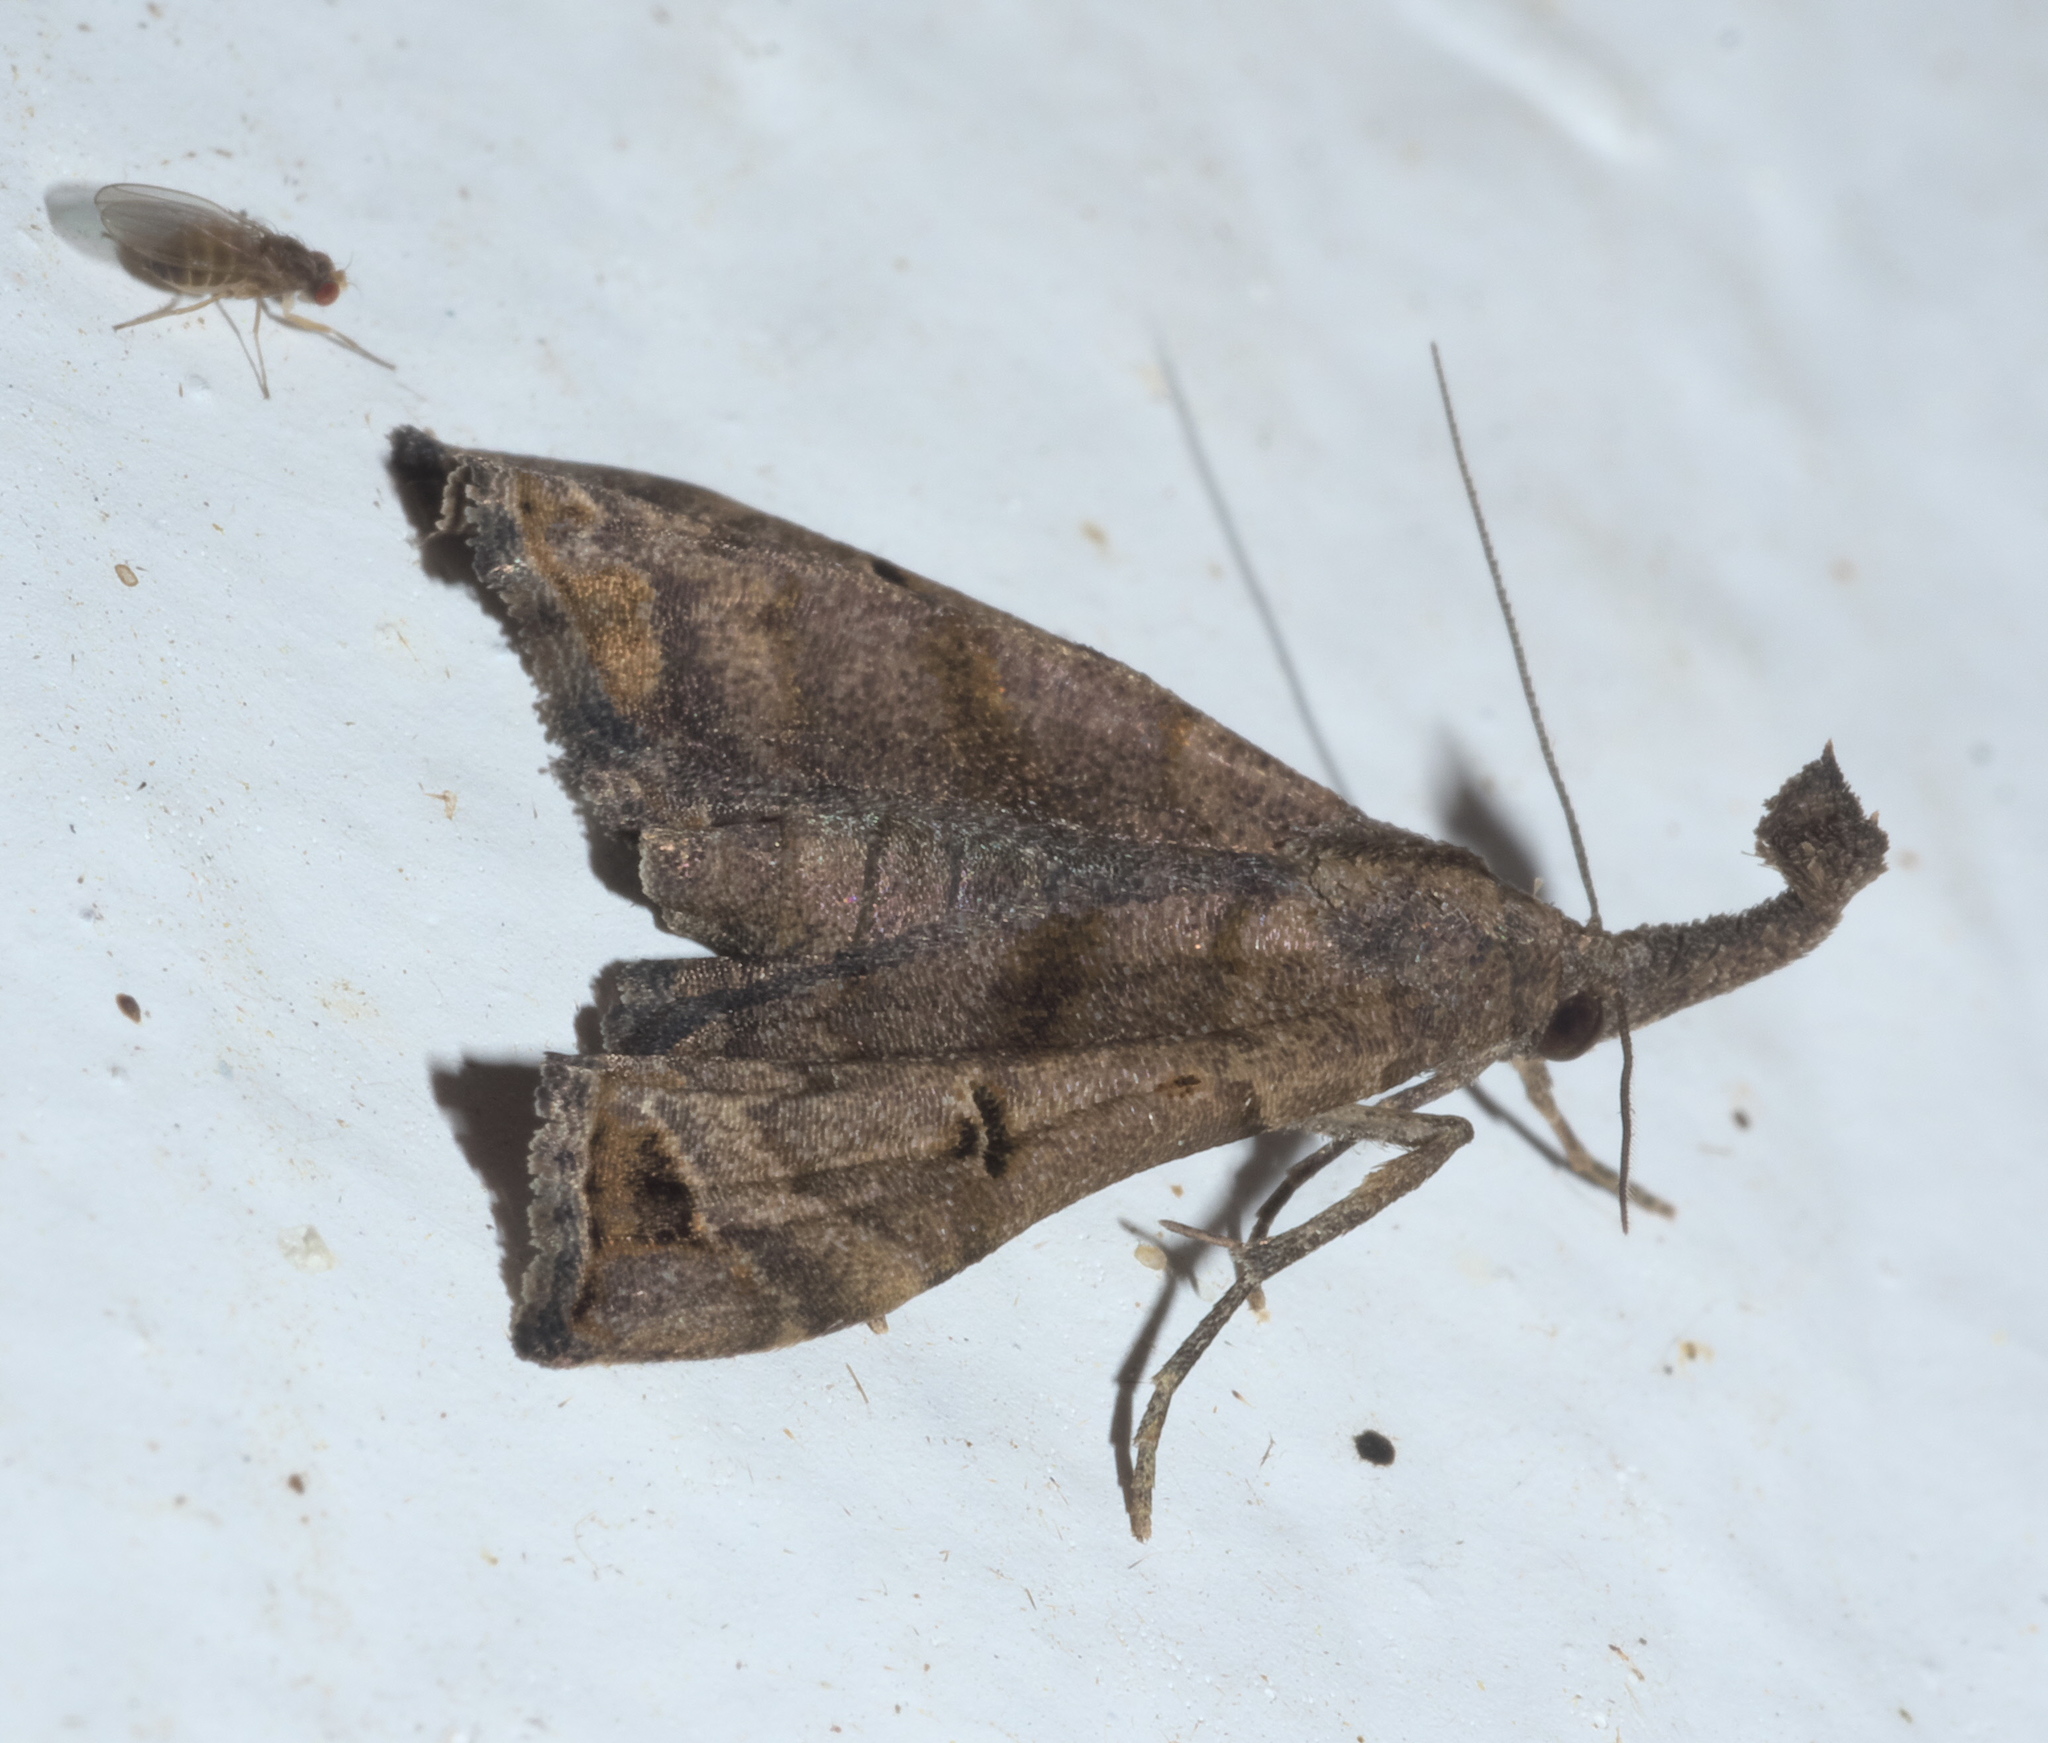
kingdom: Animalia
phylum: Arthropoda
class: Insecta
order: Lepidoptera
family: Erebidae
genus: Palthis
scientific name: Palthis asopialis
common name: Faint-spotted palthis moth
